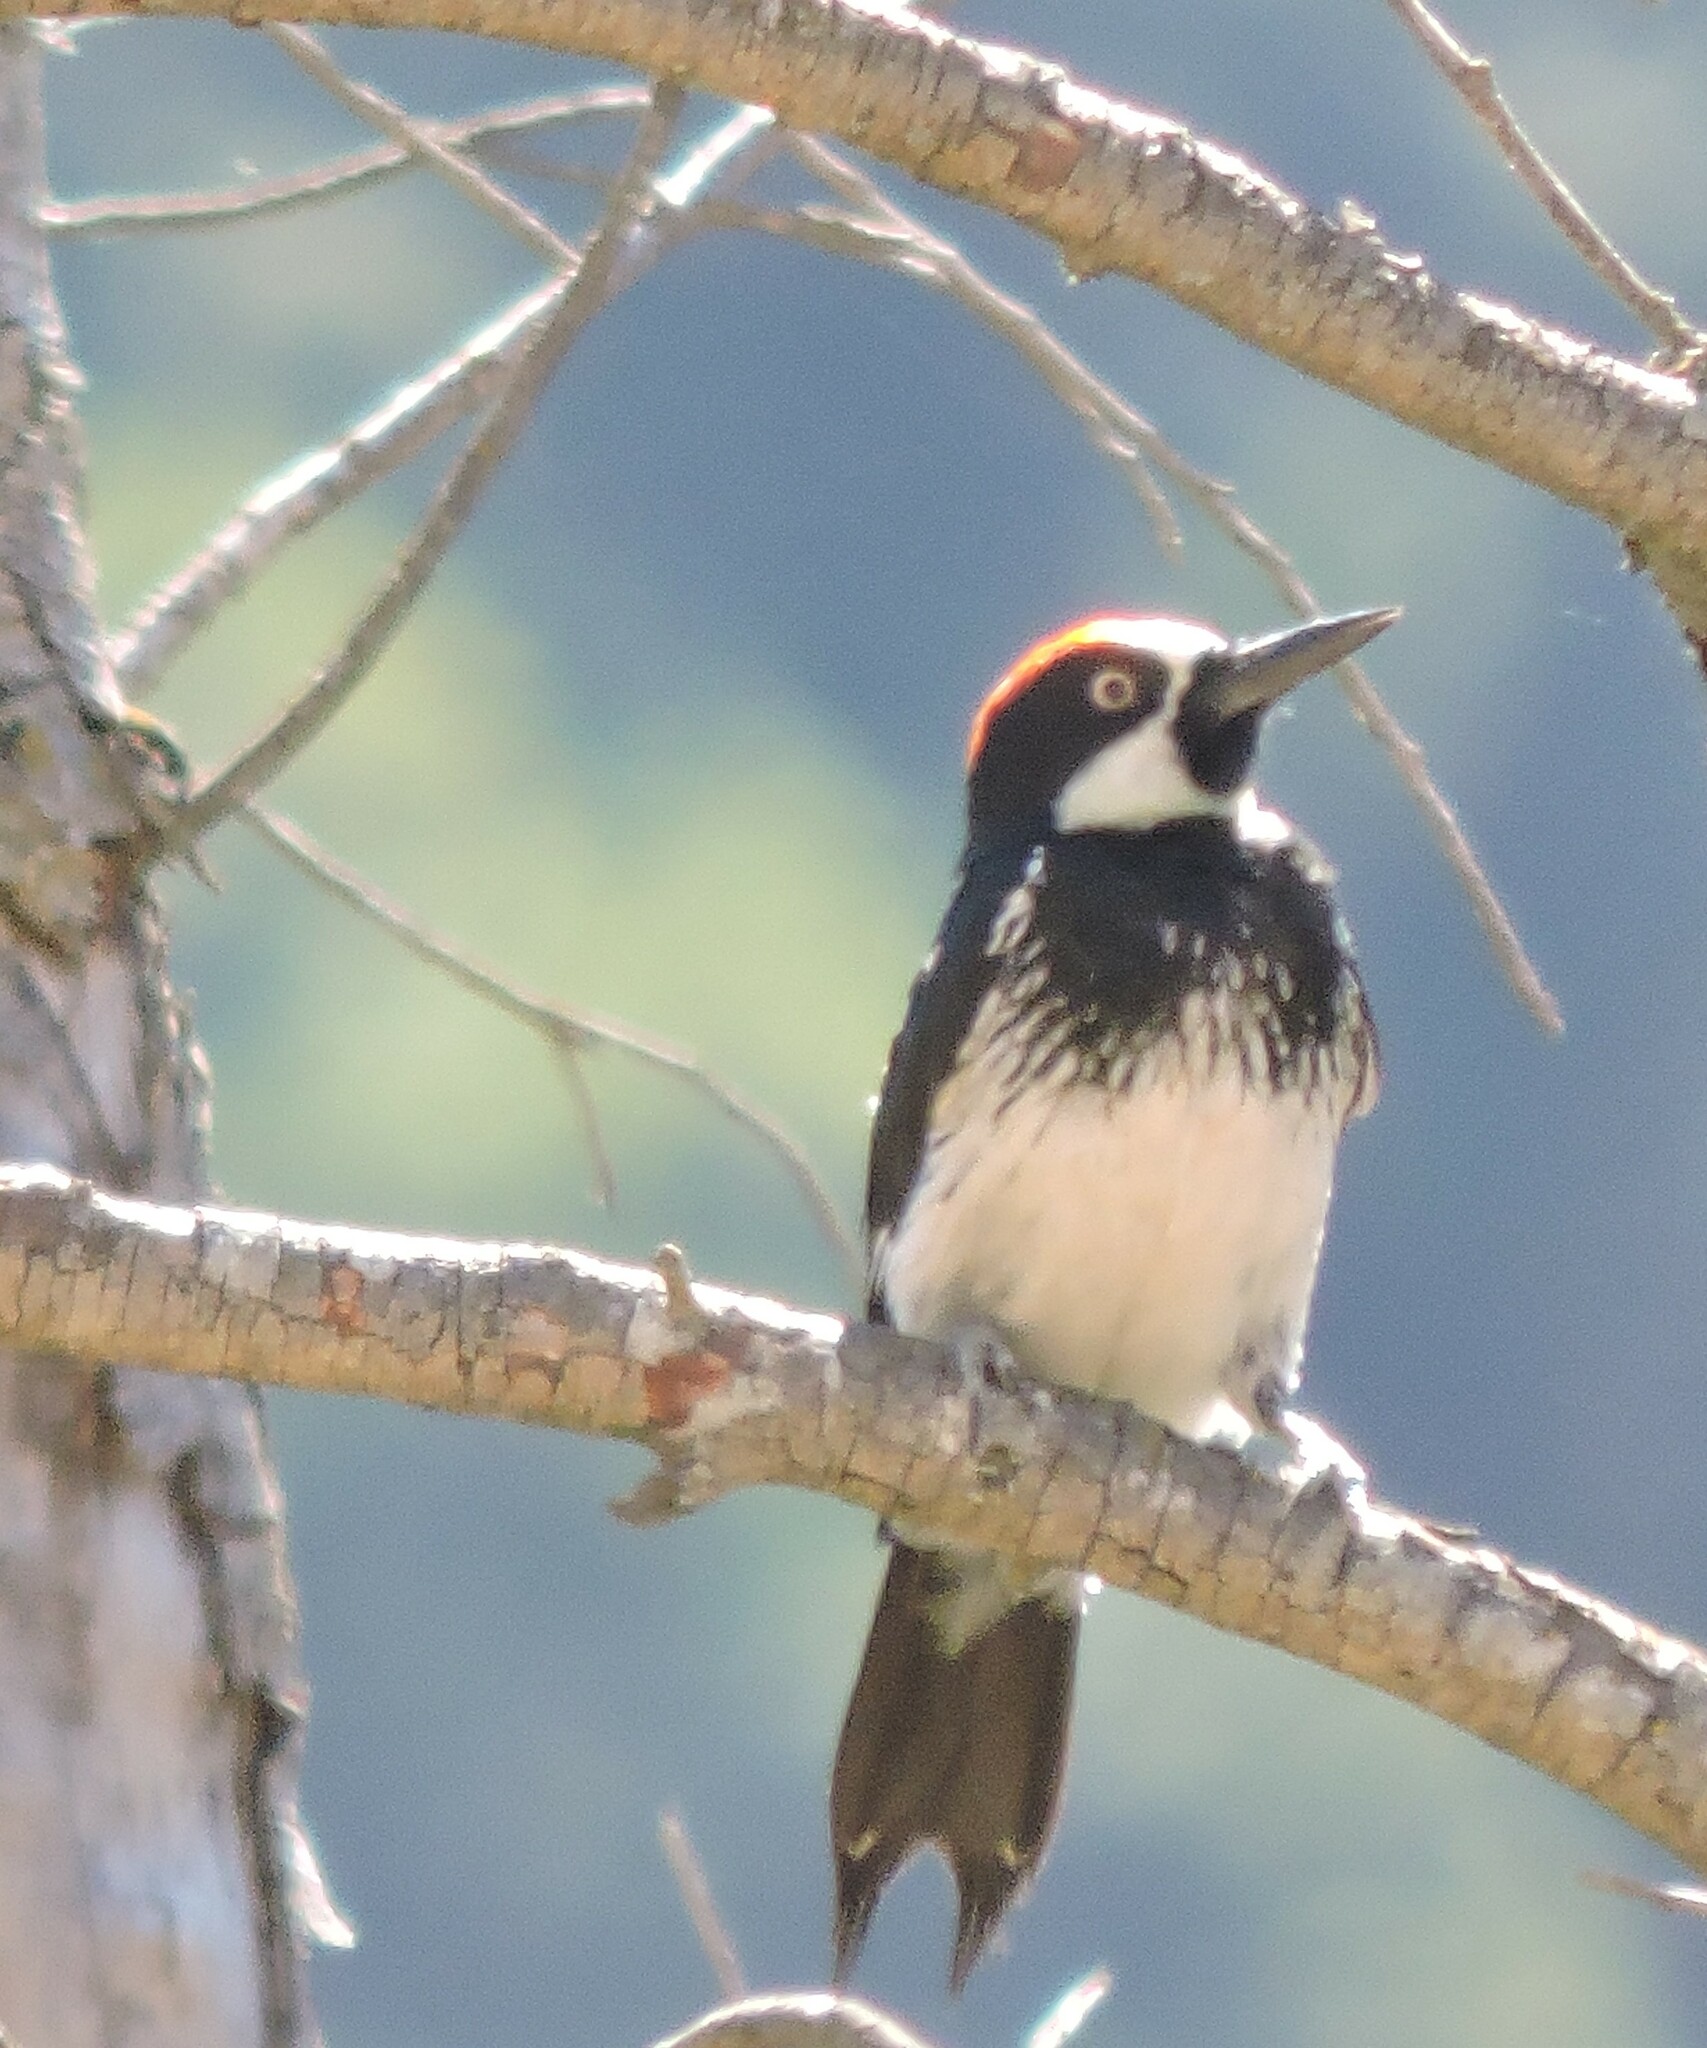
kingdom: Animalia
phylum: Chordata
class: Aves
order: Piciformes
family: Picidae
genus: Melanerpes
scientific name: Melanerpes formicivorus
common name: Acorn woodpecker
